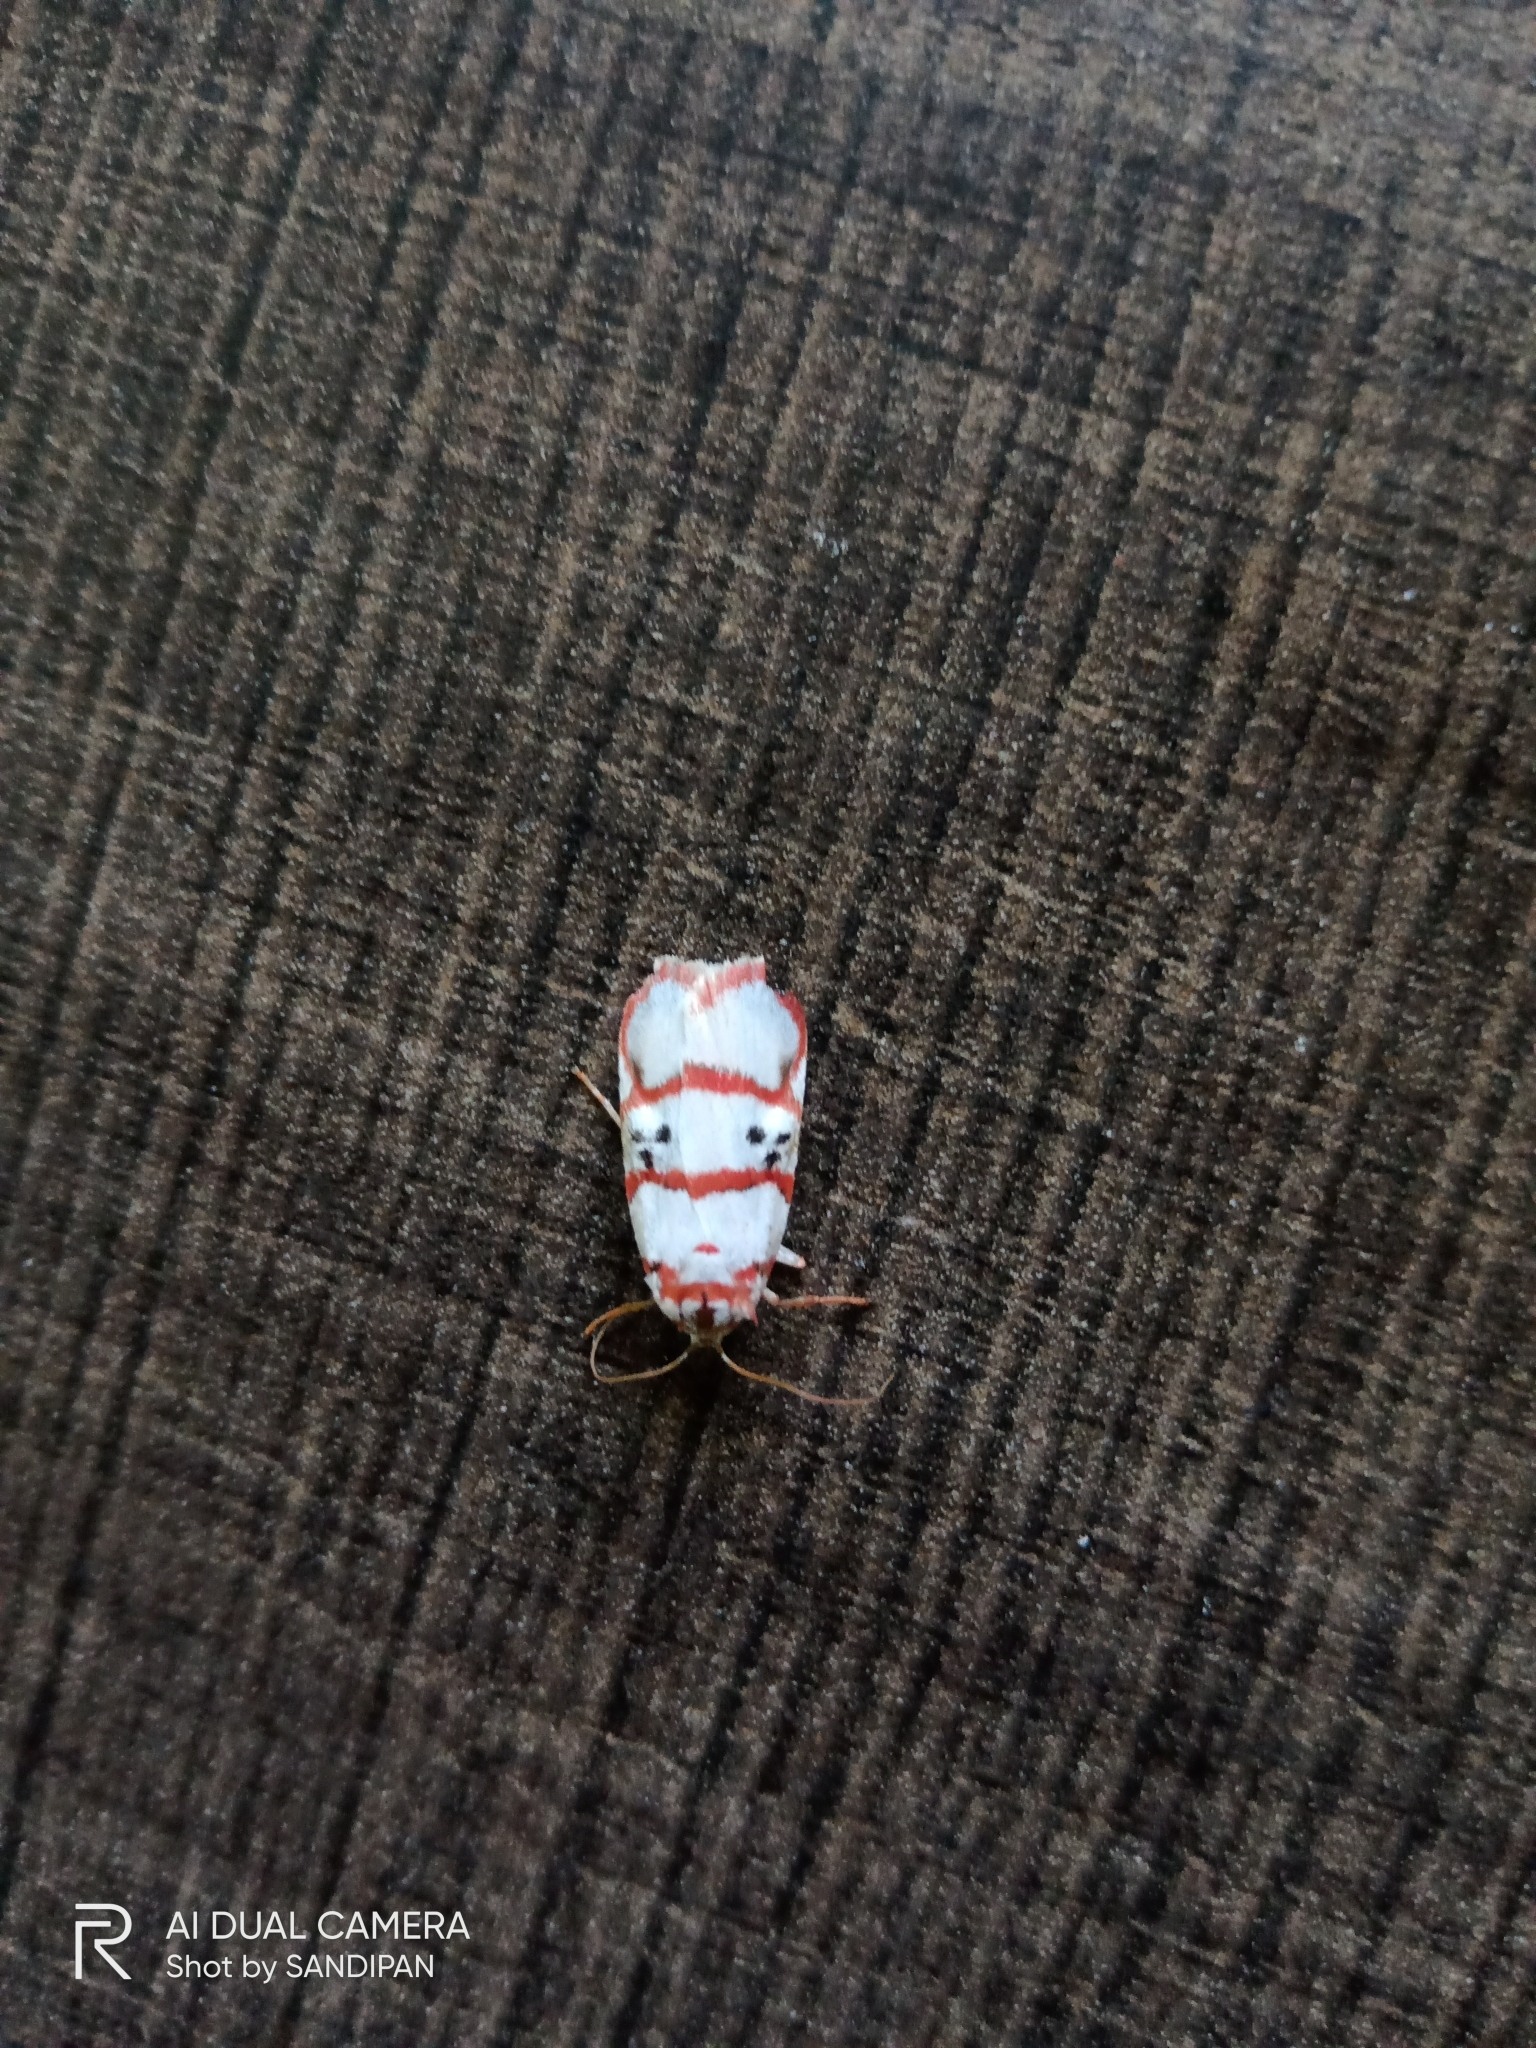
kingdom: Animalia
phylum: Arthropoda
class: Insecta
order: Lepidoptera
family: Erebidae
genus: Cyana
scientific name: Cyana peregrina
